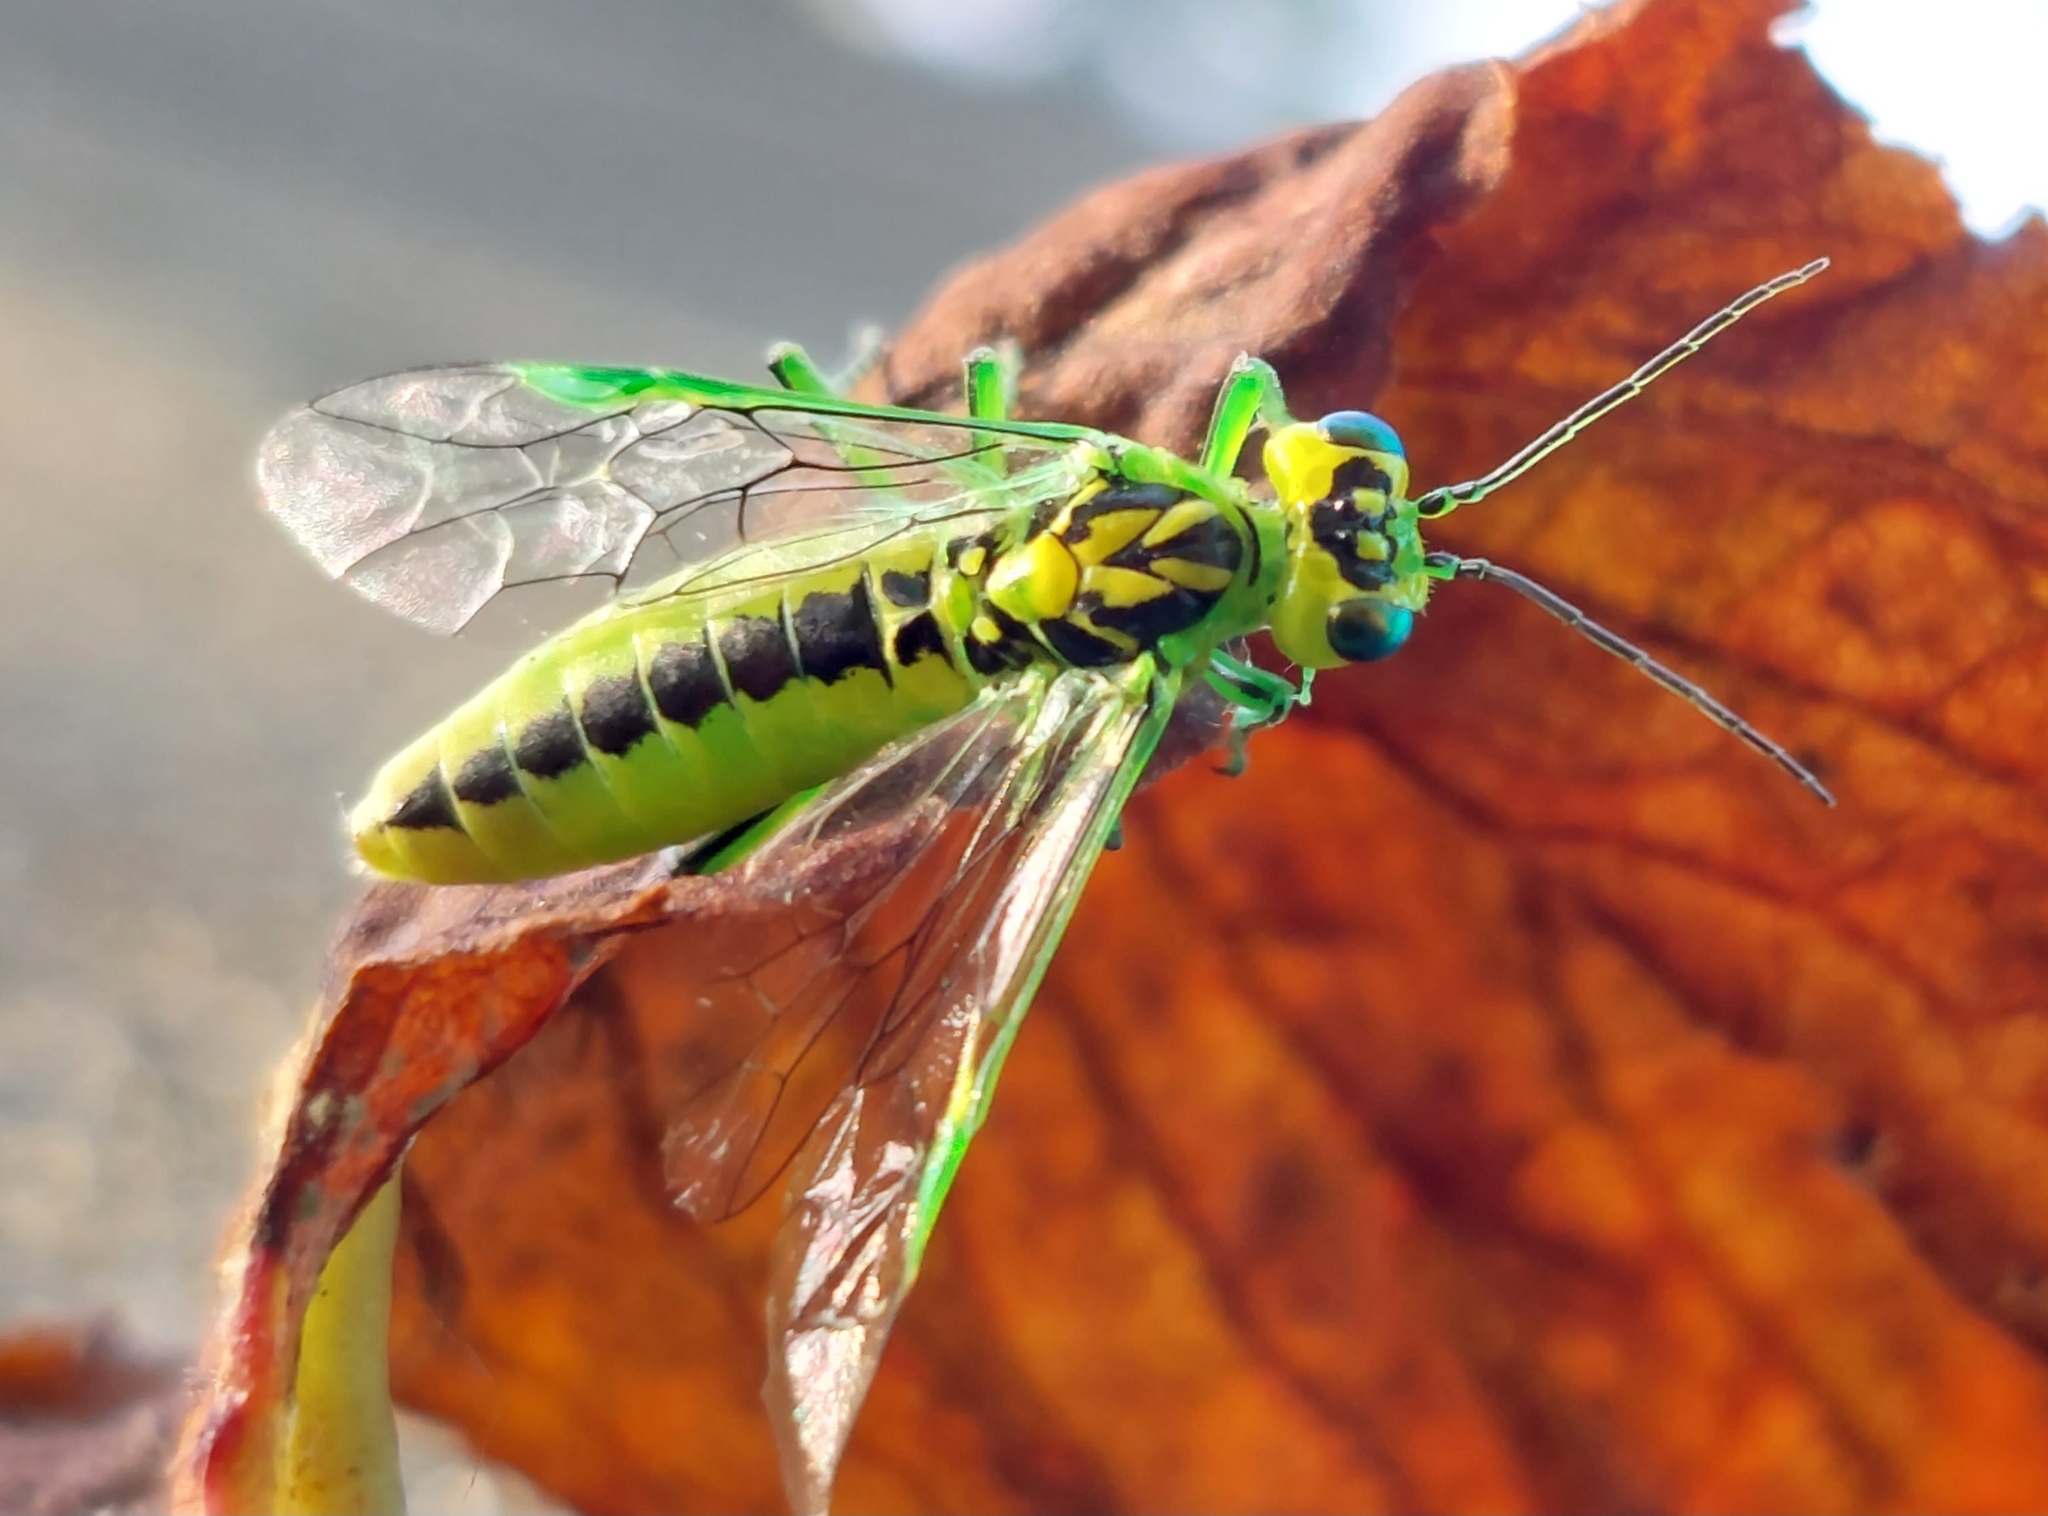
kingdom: Animalia
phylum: Arthropoda
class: Insecta
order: Hymenoptera
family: Tenthredinidae
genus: Rhogogaster
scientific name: Rhogogaster chlorosoma
